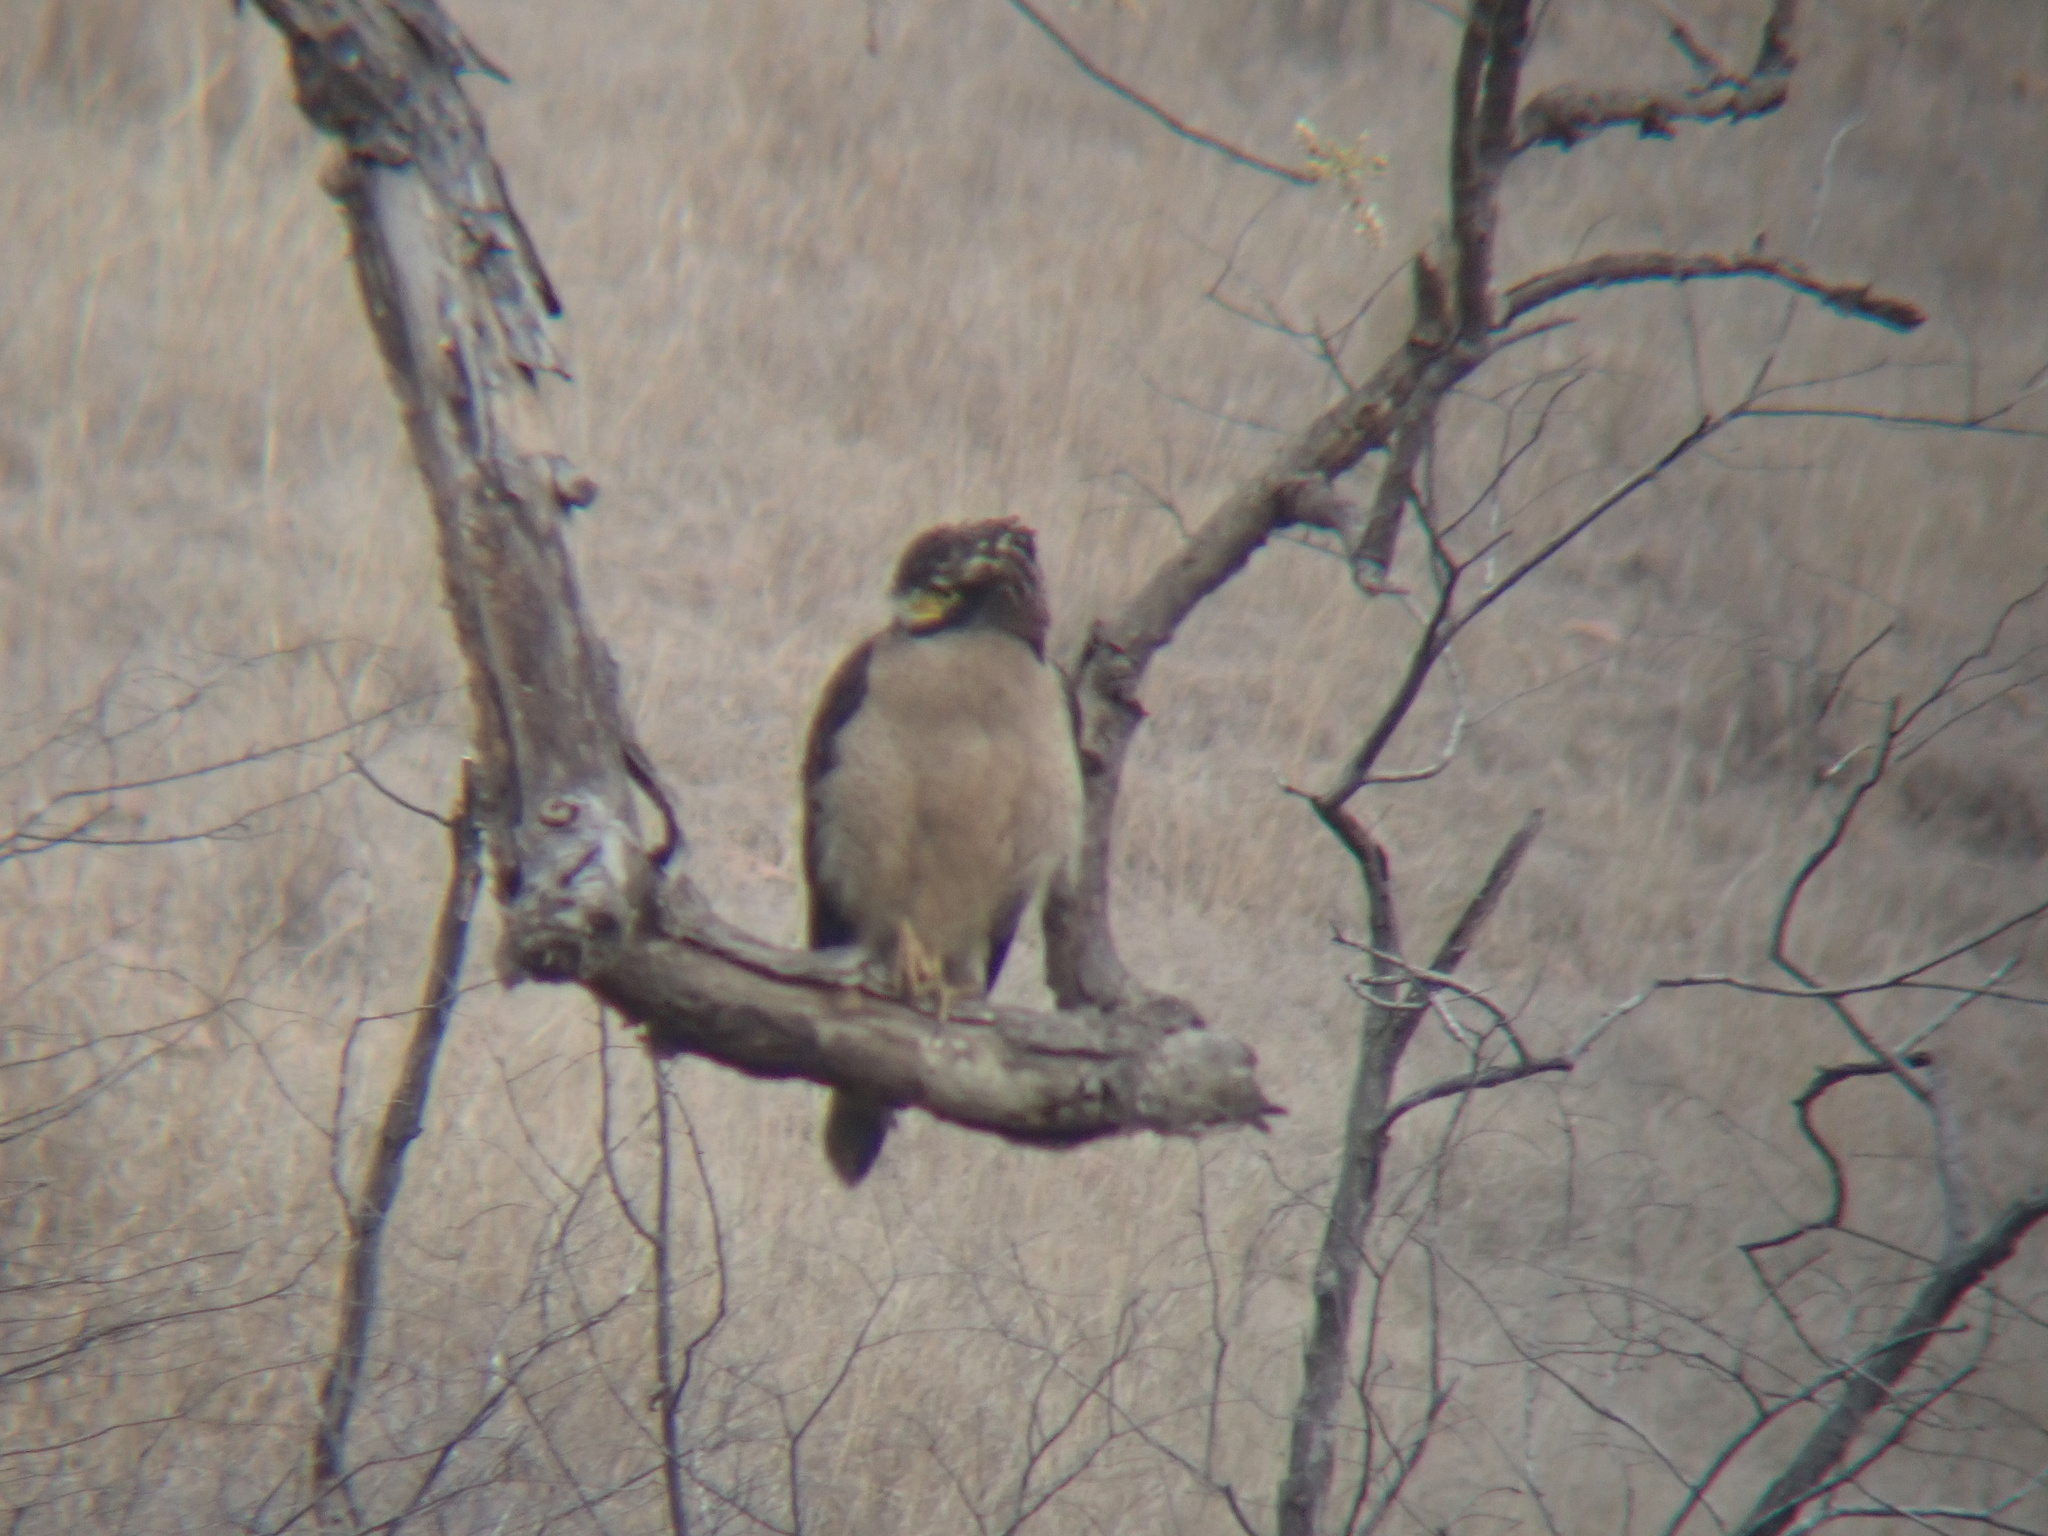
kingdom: Animalia
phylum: Chordata
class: Aves
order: Accipitriformes
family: Accipitridae
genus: Spilornis
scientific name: Spilornis cheela
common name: Crested serpent eagle
